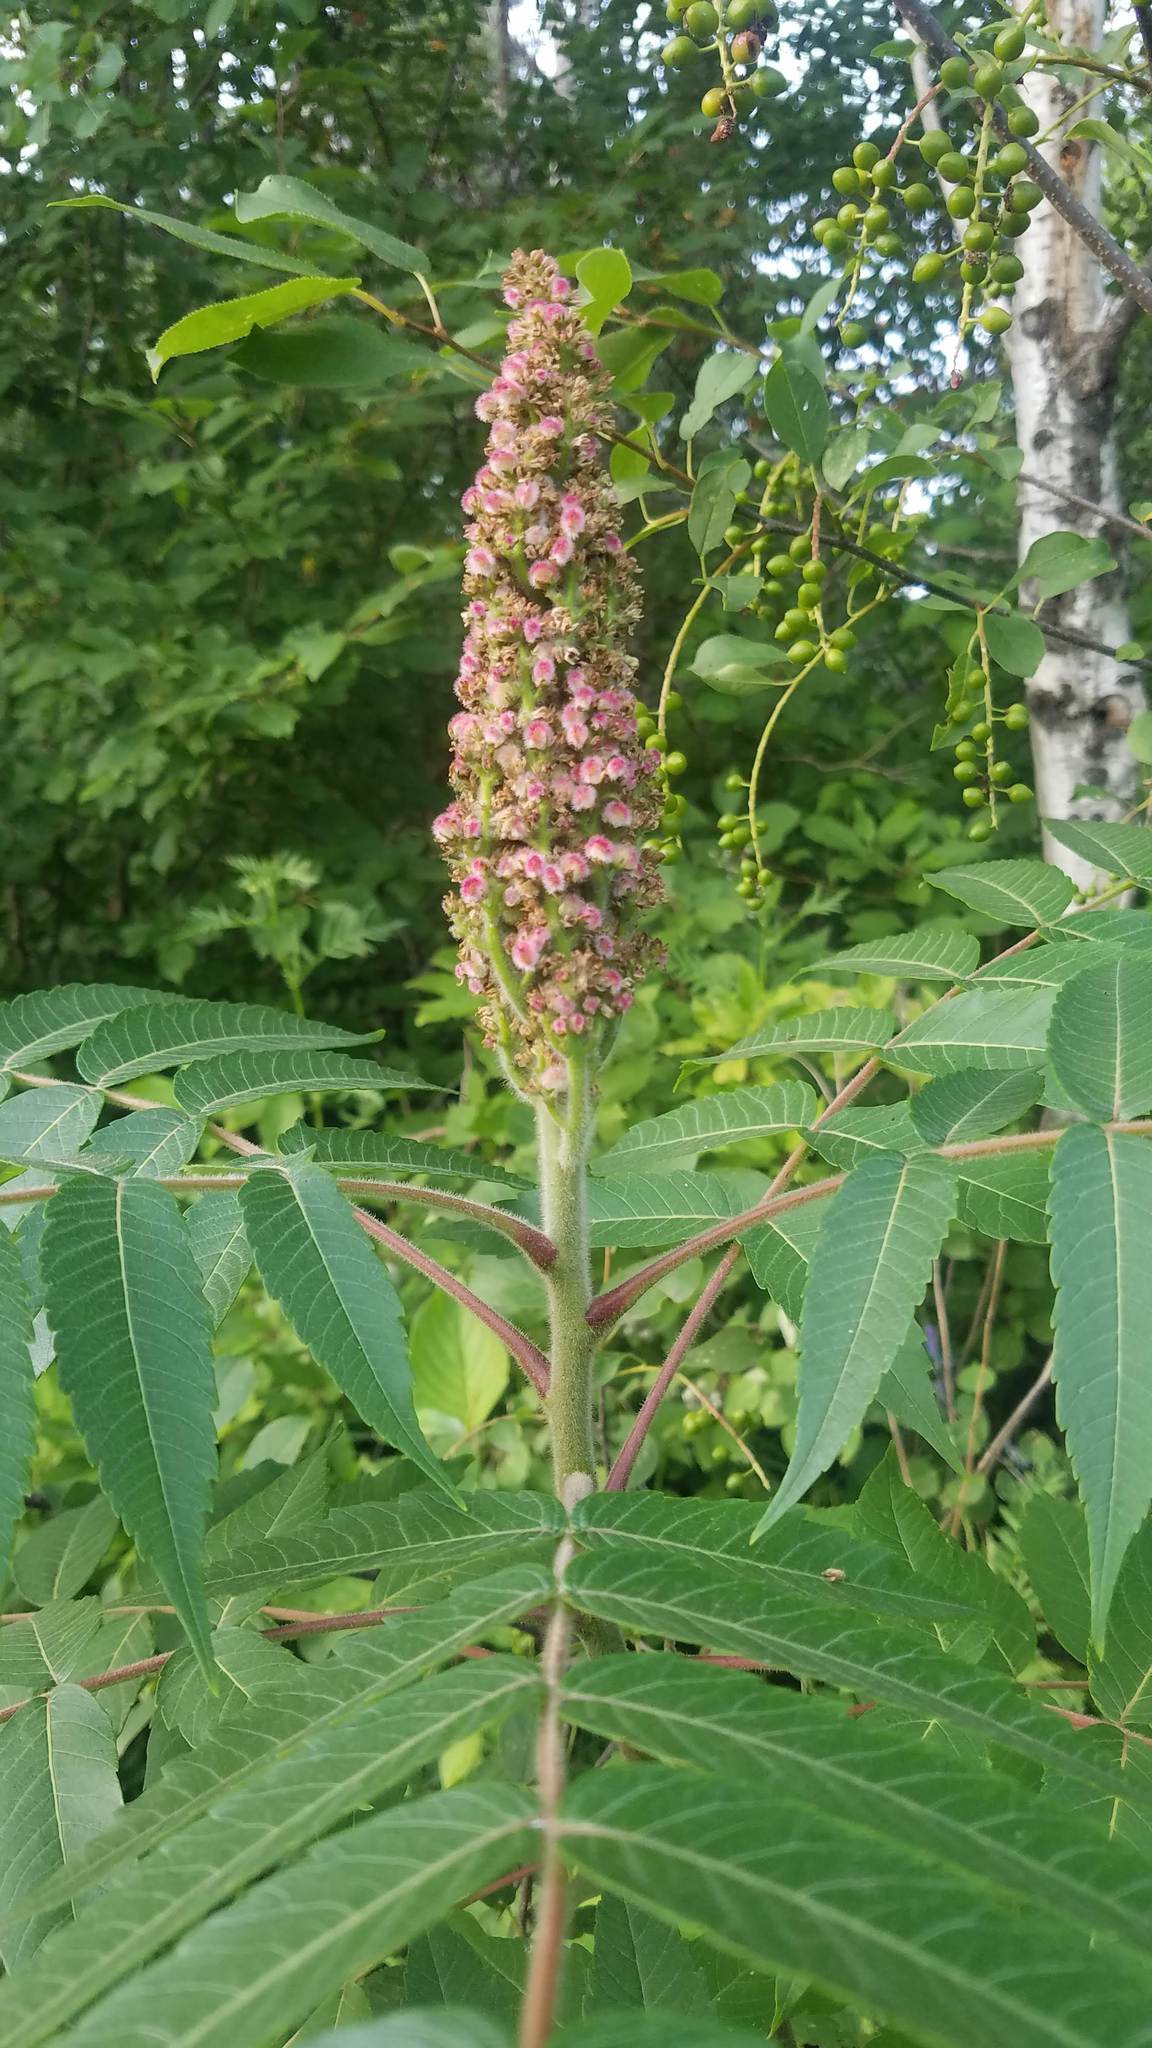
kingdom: Plantae
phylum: Tracheophyta
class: Magnoliopsida
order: Sapindales
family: Anacardiaceae
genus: Rhus
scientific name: Rhus typhina
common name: Staghorn sumac
